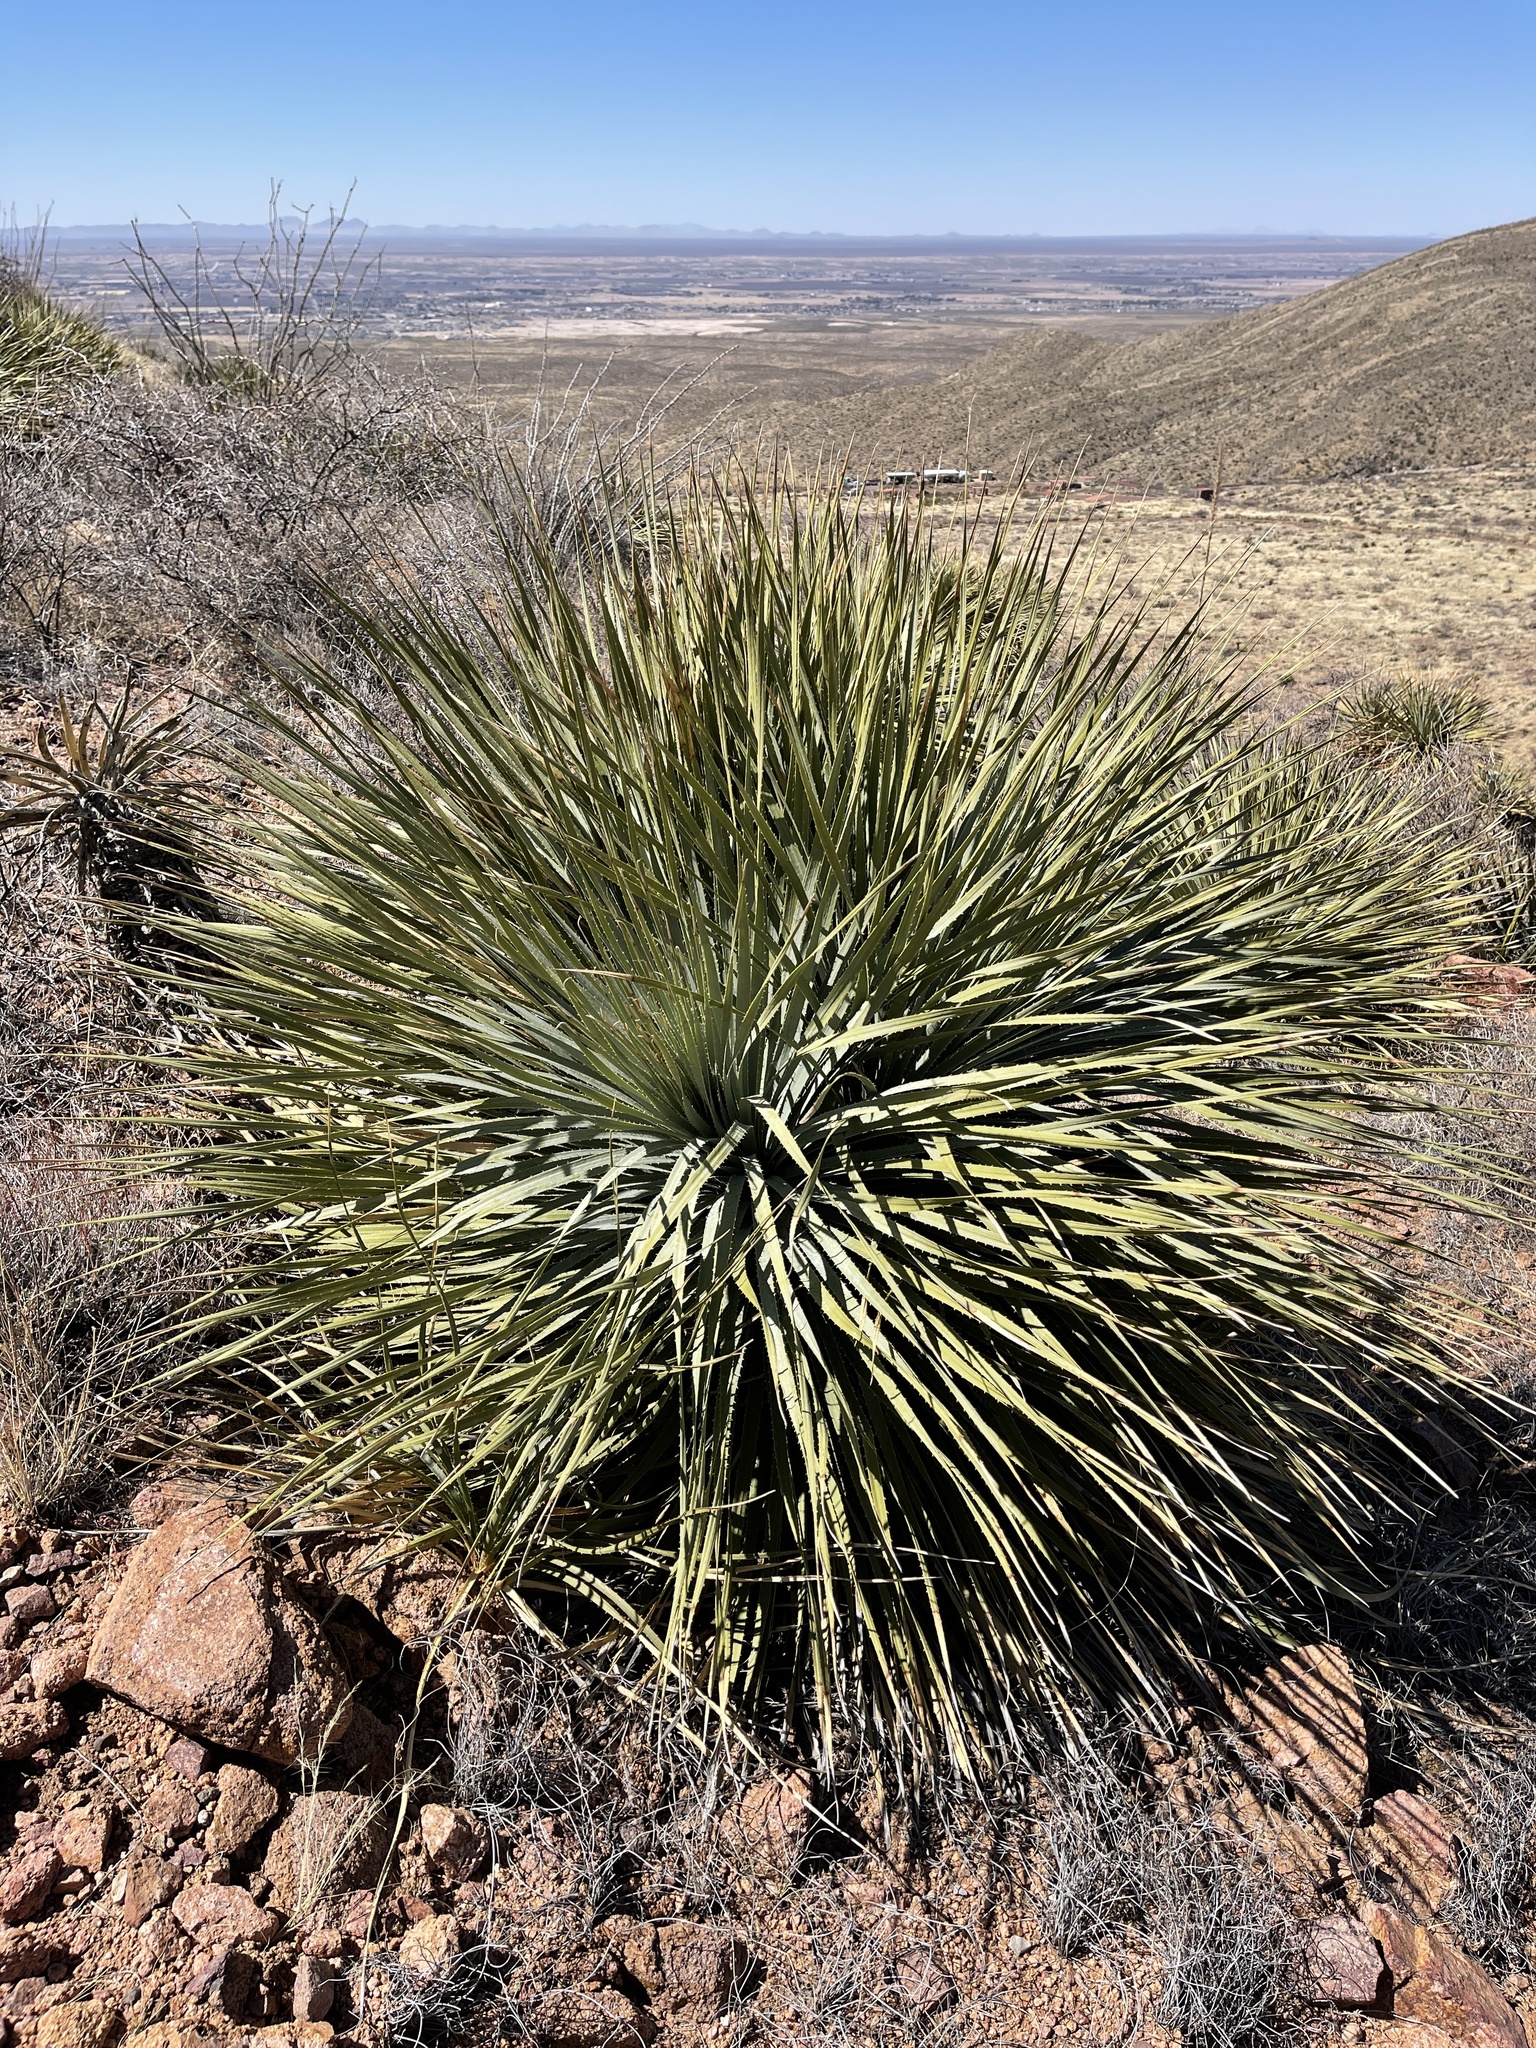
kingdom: Plantae
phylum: Tracheophyta
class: Liliopsida
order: Asparagales
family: Asparagaceae
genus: Dasylirion
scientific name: Dasylirion wheeleri
